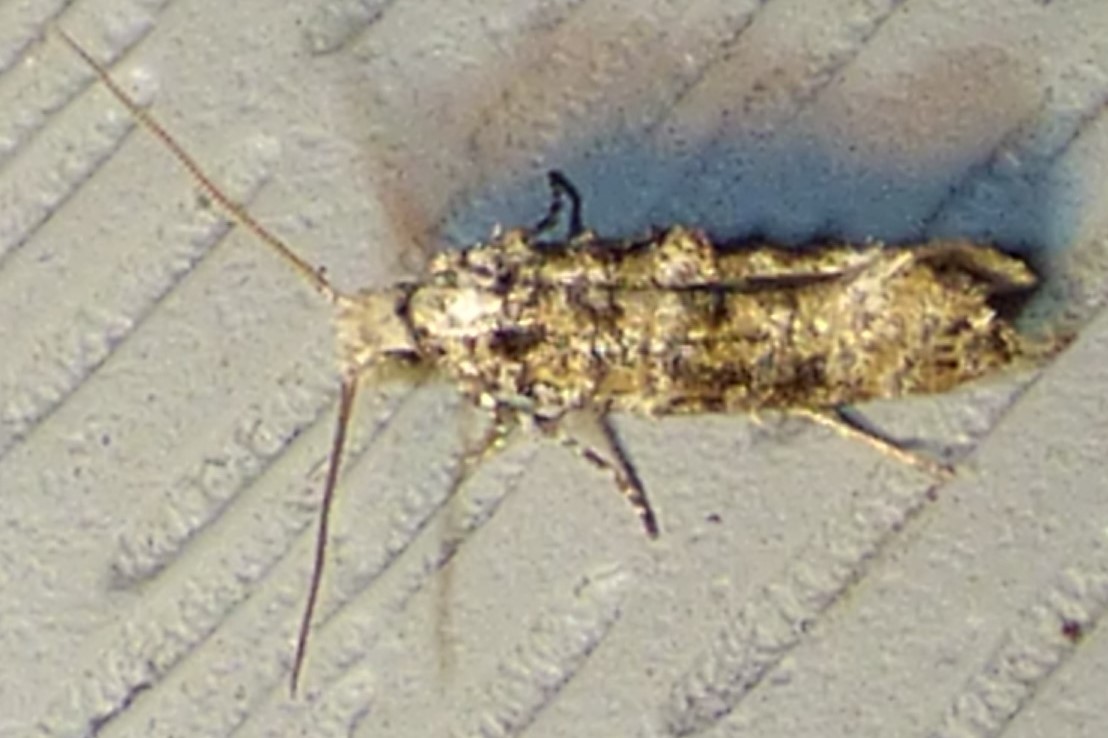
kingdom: Animalia
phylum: Arthropoda
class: Insecta
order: Lepidoptera
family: Tineidae
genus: Xylesthia
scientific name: Xylesthia pruniramiella
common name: Clemens' bark moth
